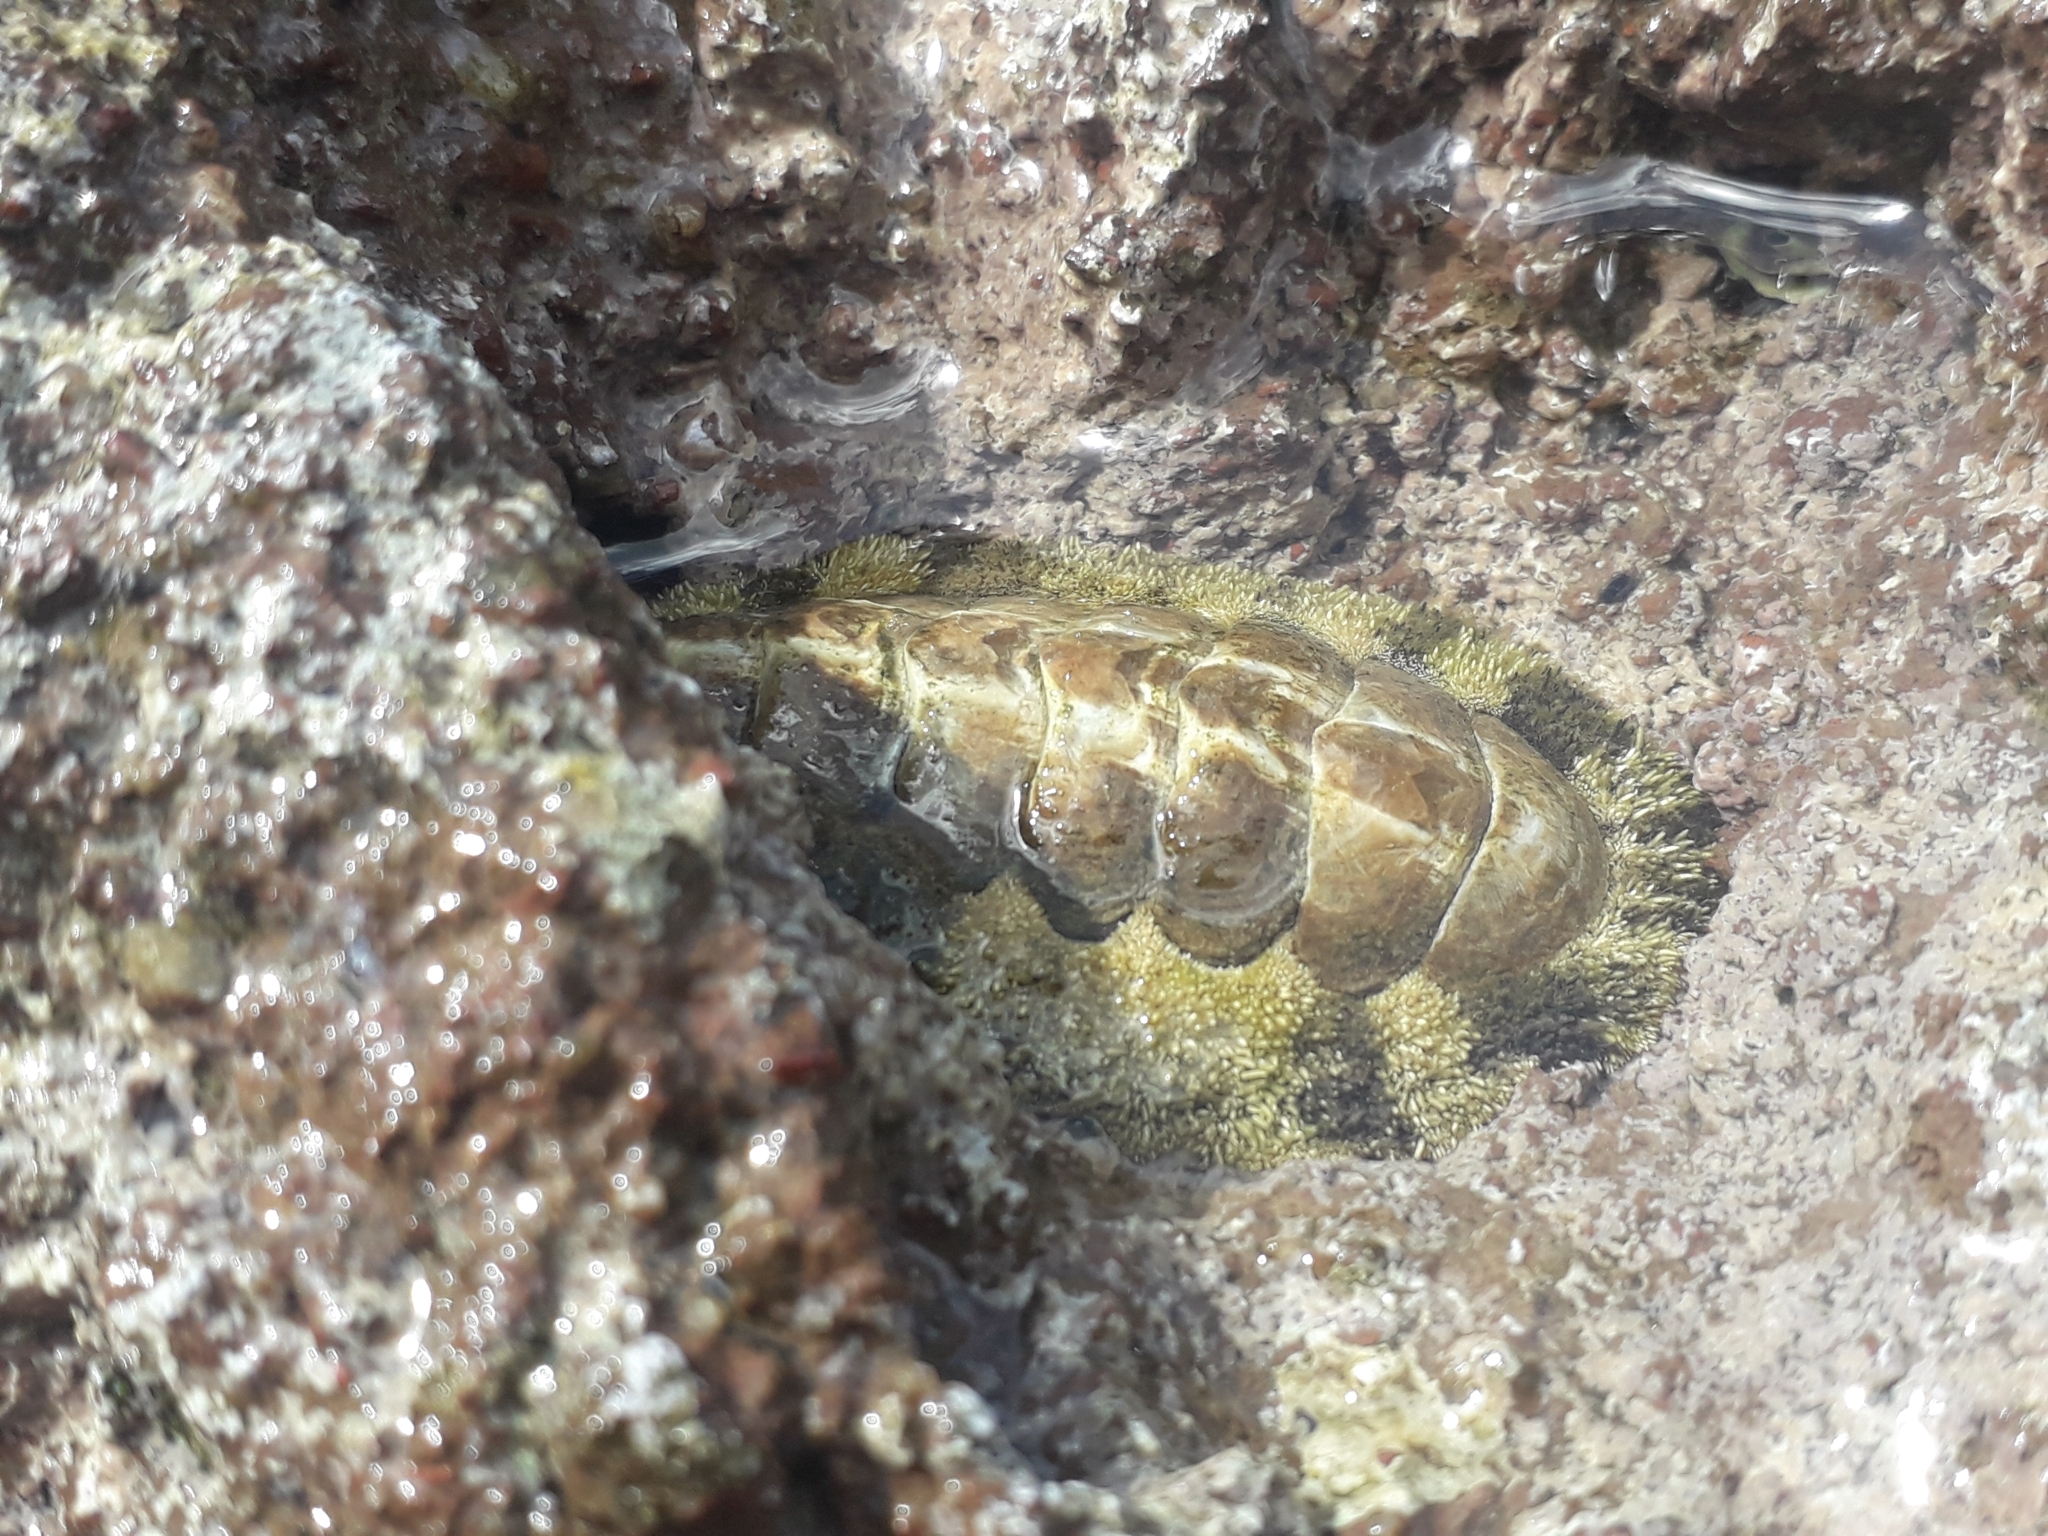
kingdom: Animalia
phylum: Mollusca
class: Polyplacophora
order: Chitonida
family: Chitonidae
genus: Acanthopleura
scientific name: Acanthopleura granulata
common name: West indian fuzzy chiton
